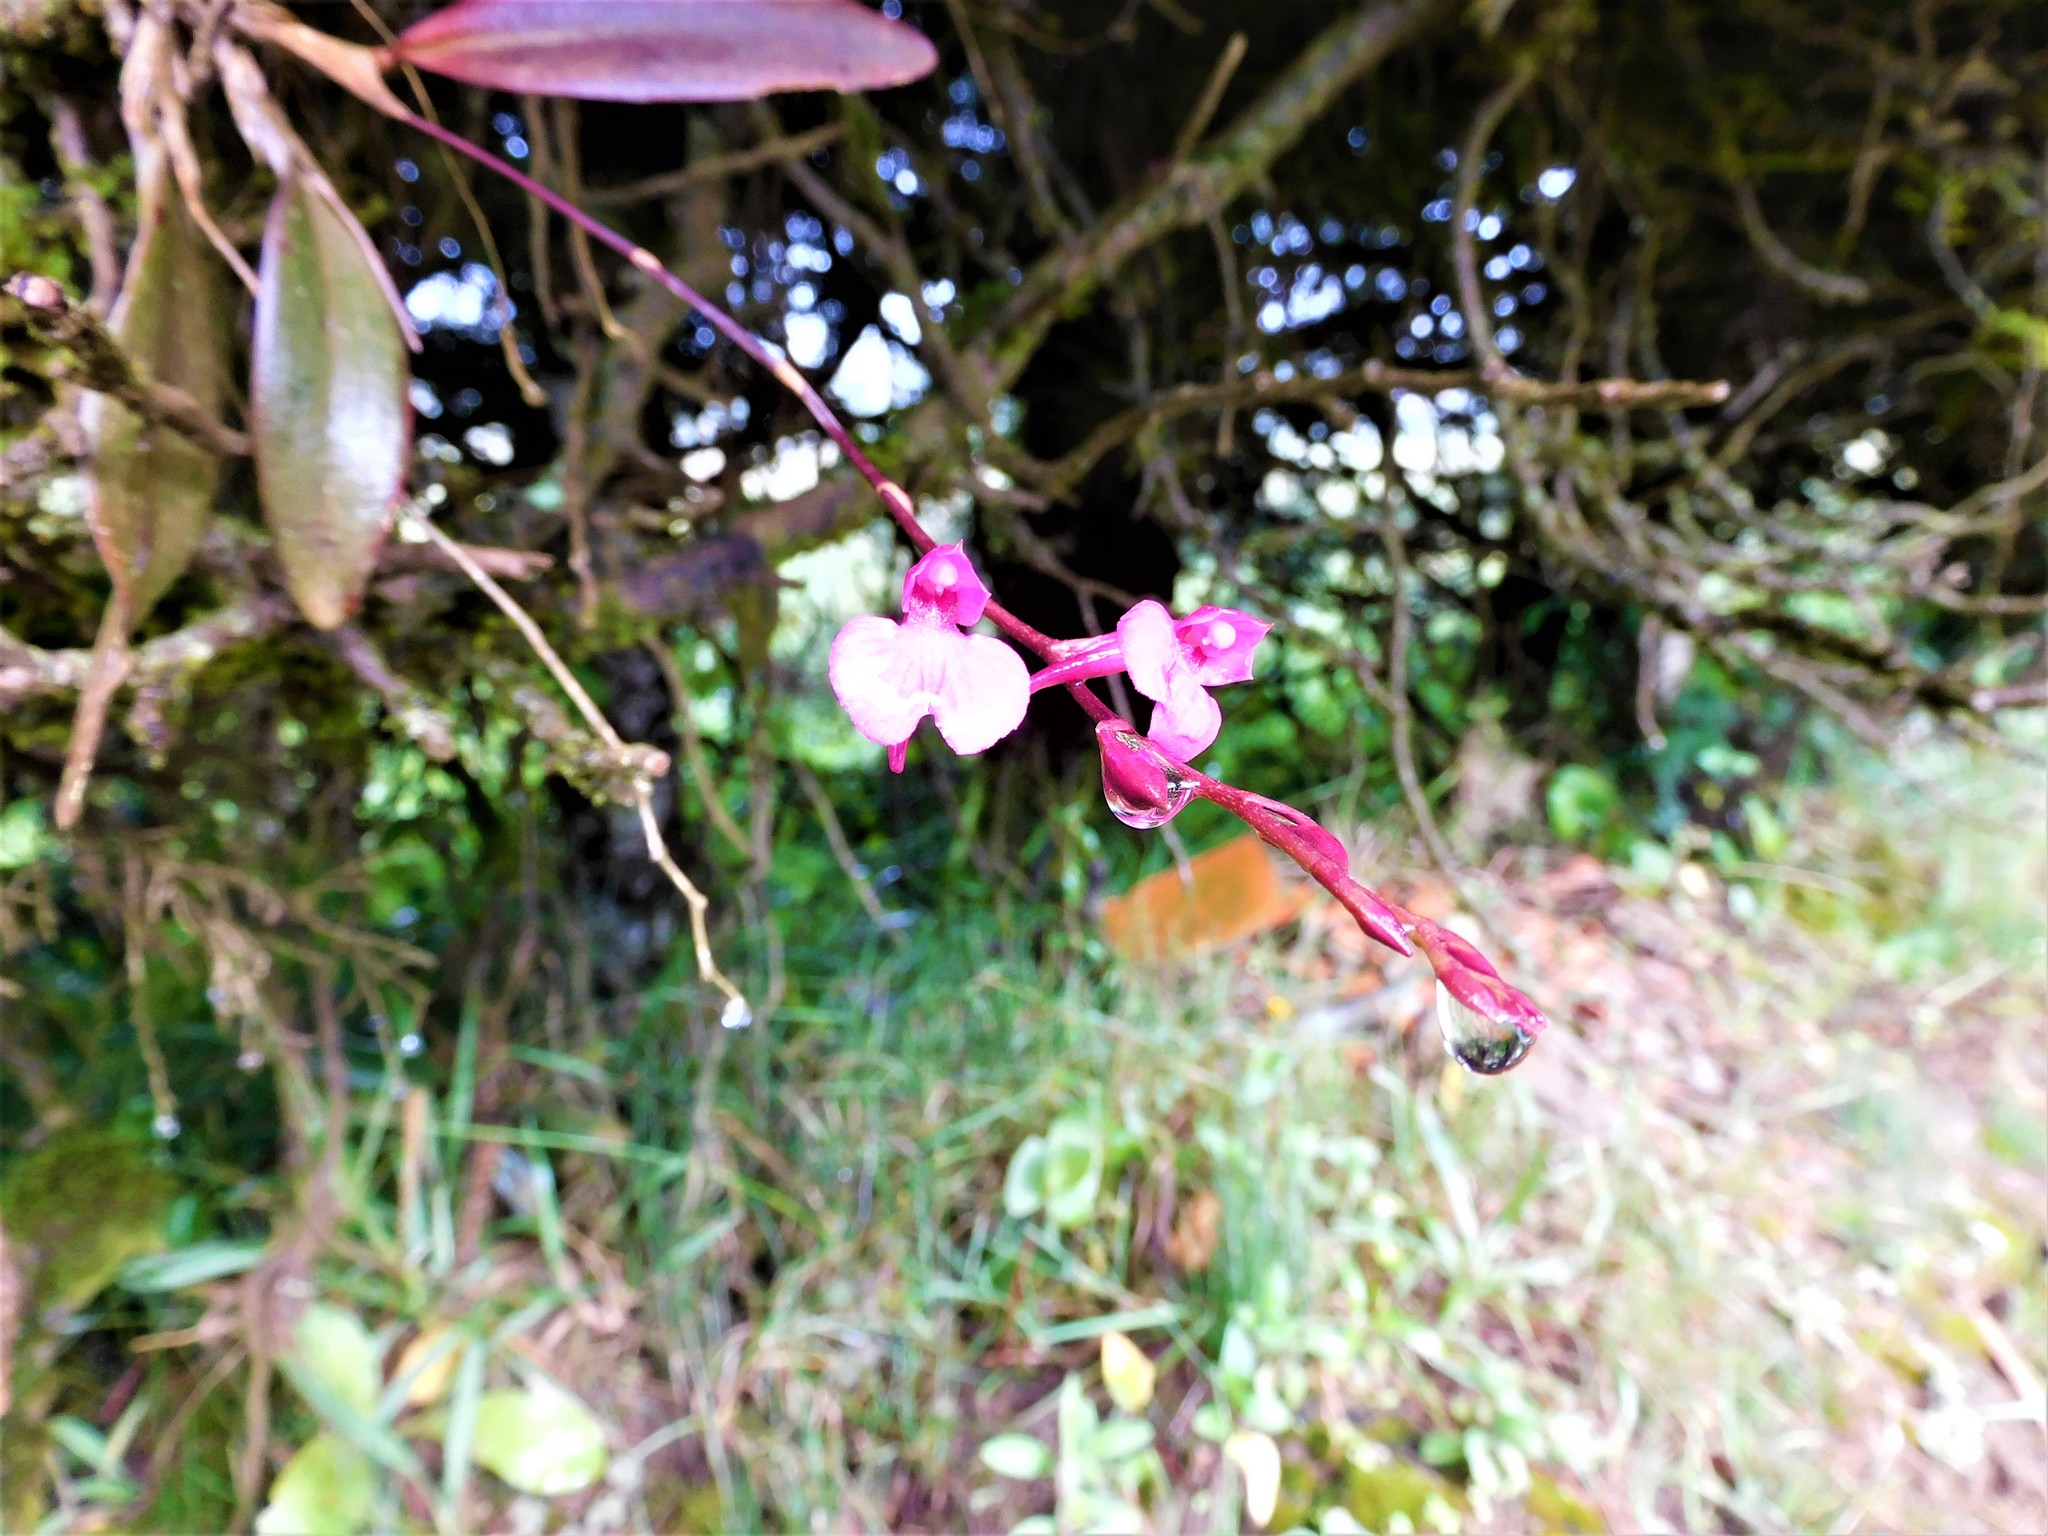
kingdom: Plantae
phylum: Tracheophyta
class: Liliopsida
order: Asparagales
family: Orchidaceae
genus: Comparettia
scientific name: Comparettia falcata
